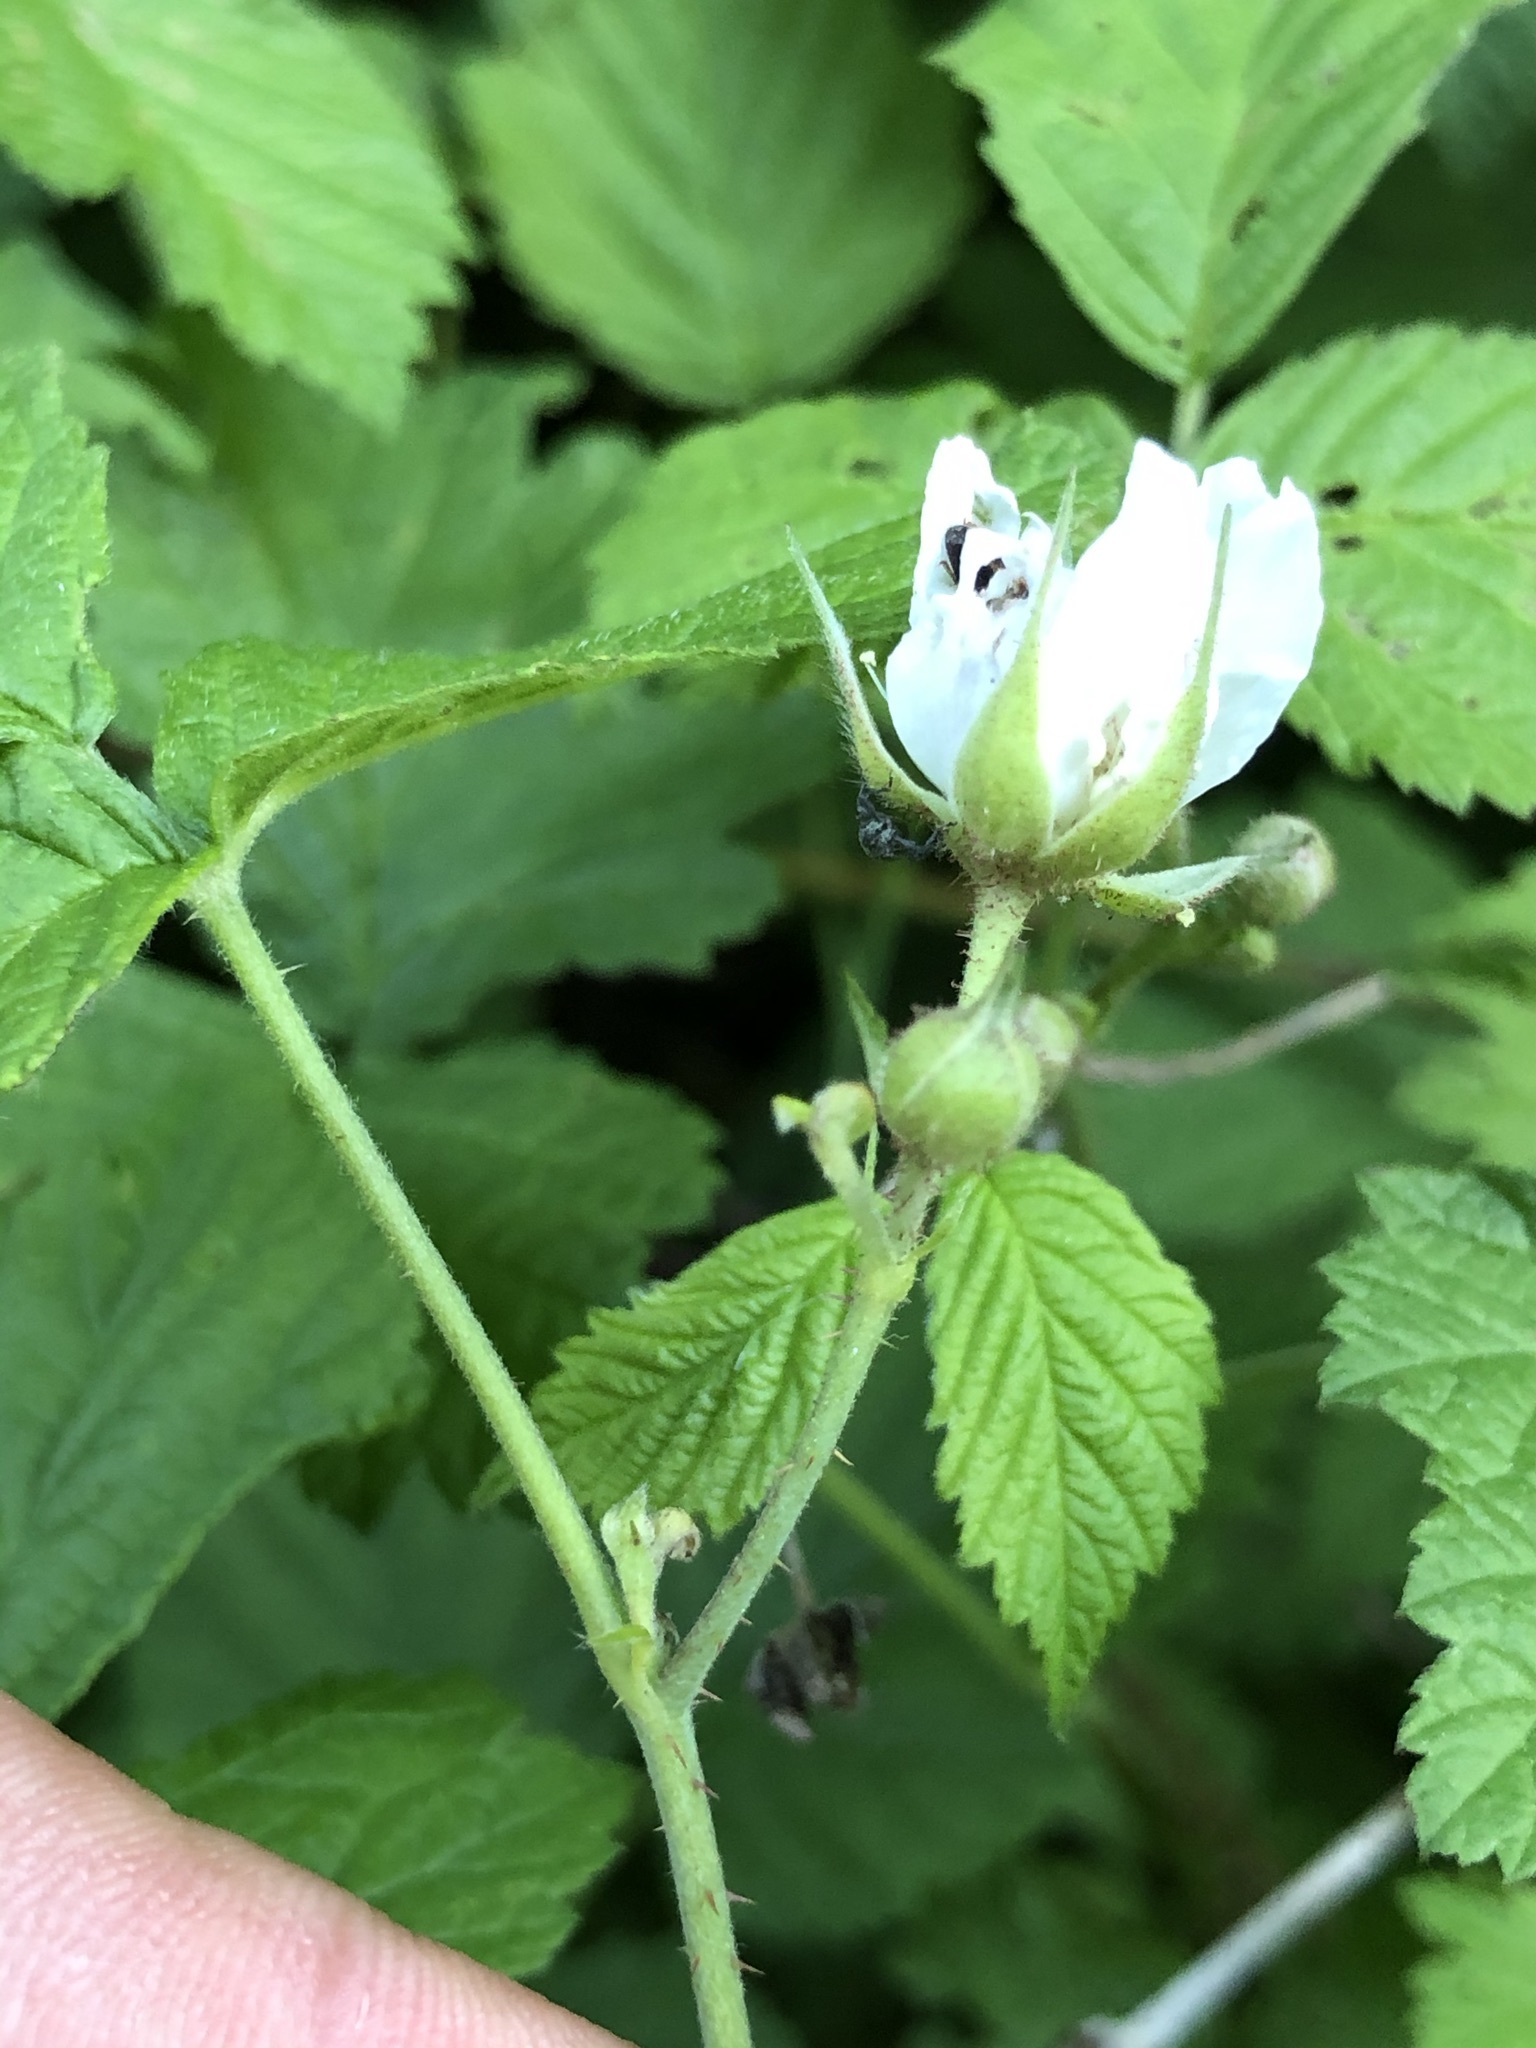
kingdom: Plantae
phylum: Tracheophyta
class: Magnoliopsida
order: Rosales
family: Rosaceae
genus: Rubus
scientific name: Rubus caesius
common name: Dewberry
